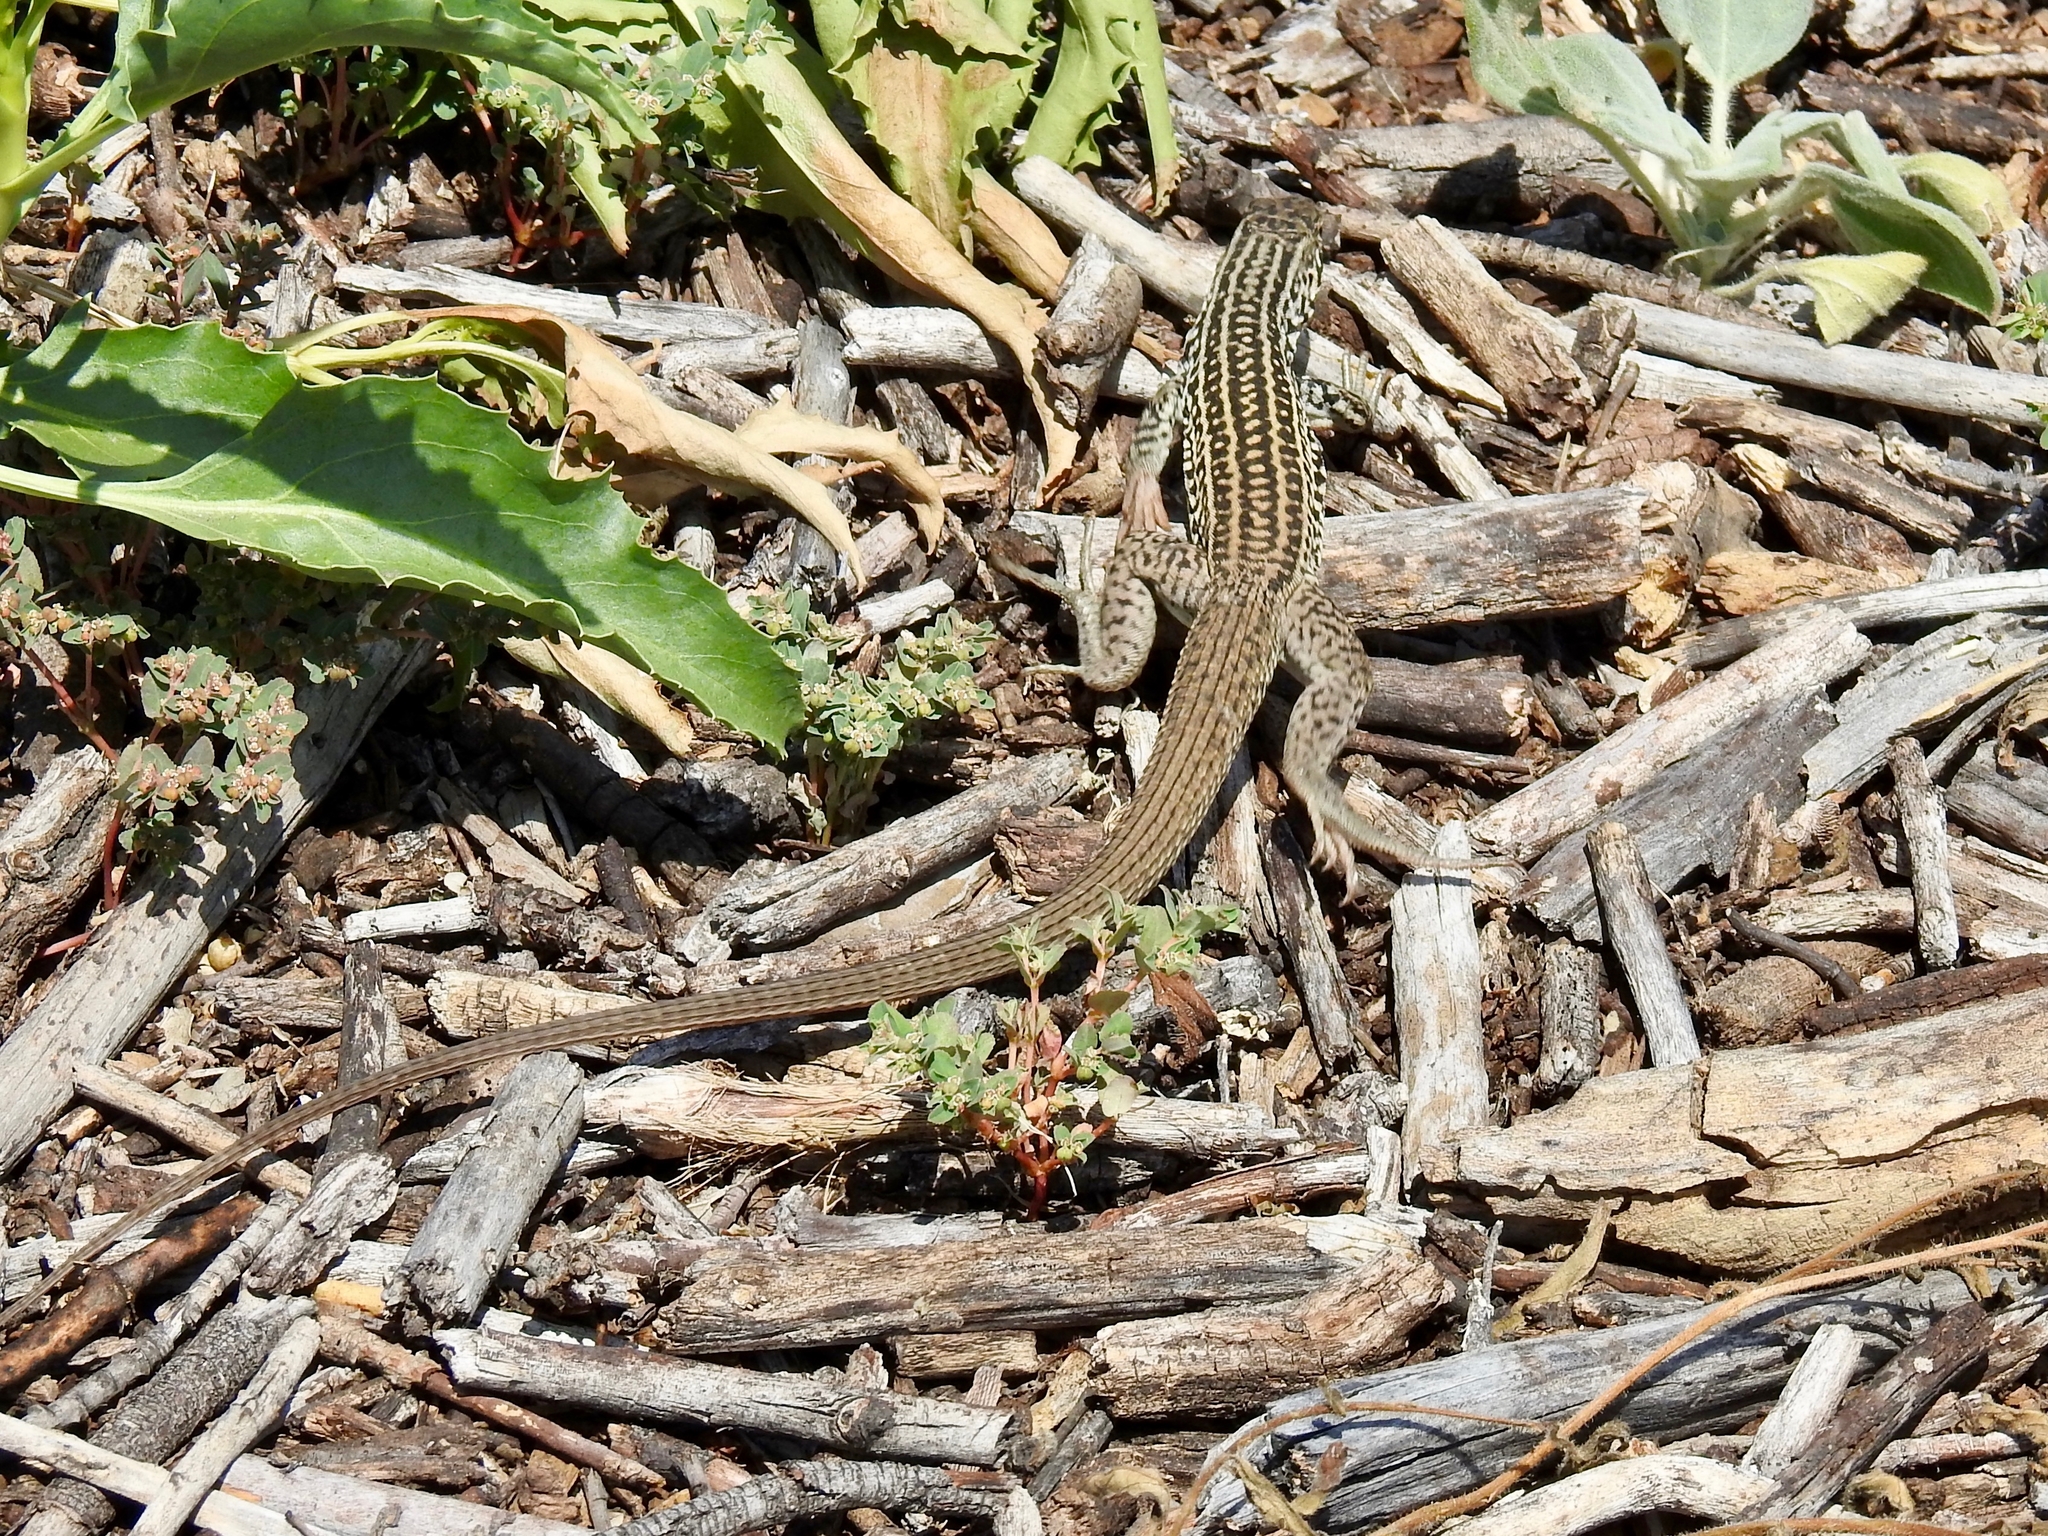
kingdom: Animalia
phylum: Chordata
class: Squamata
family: Teiidae
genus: Aspidoscelis
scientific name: Aspidoscelis tigris
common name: Tiger whiptail
